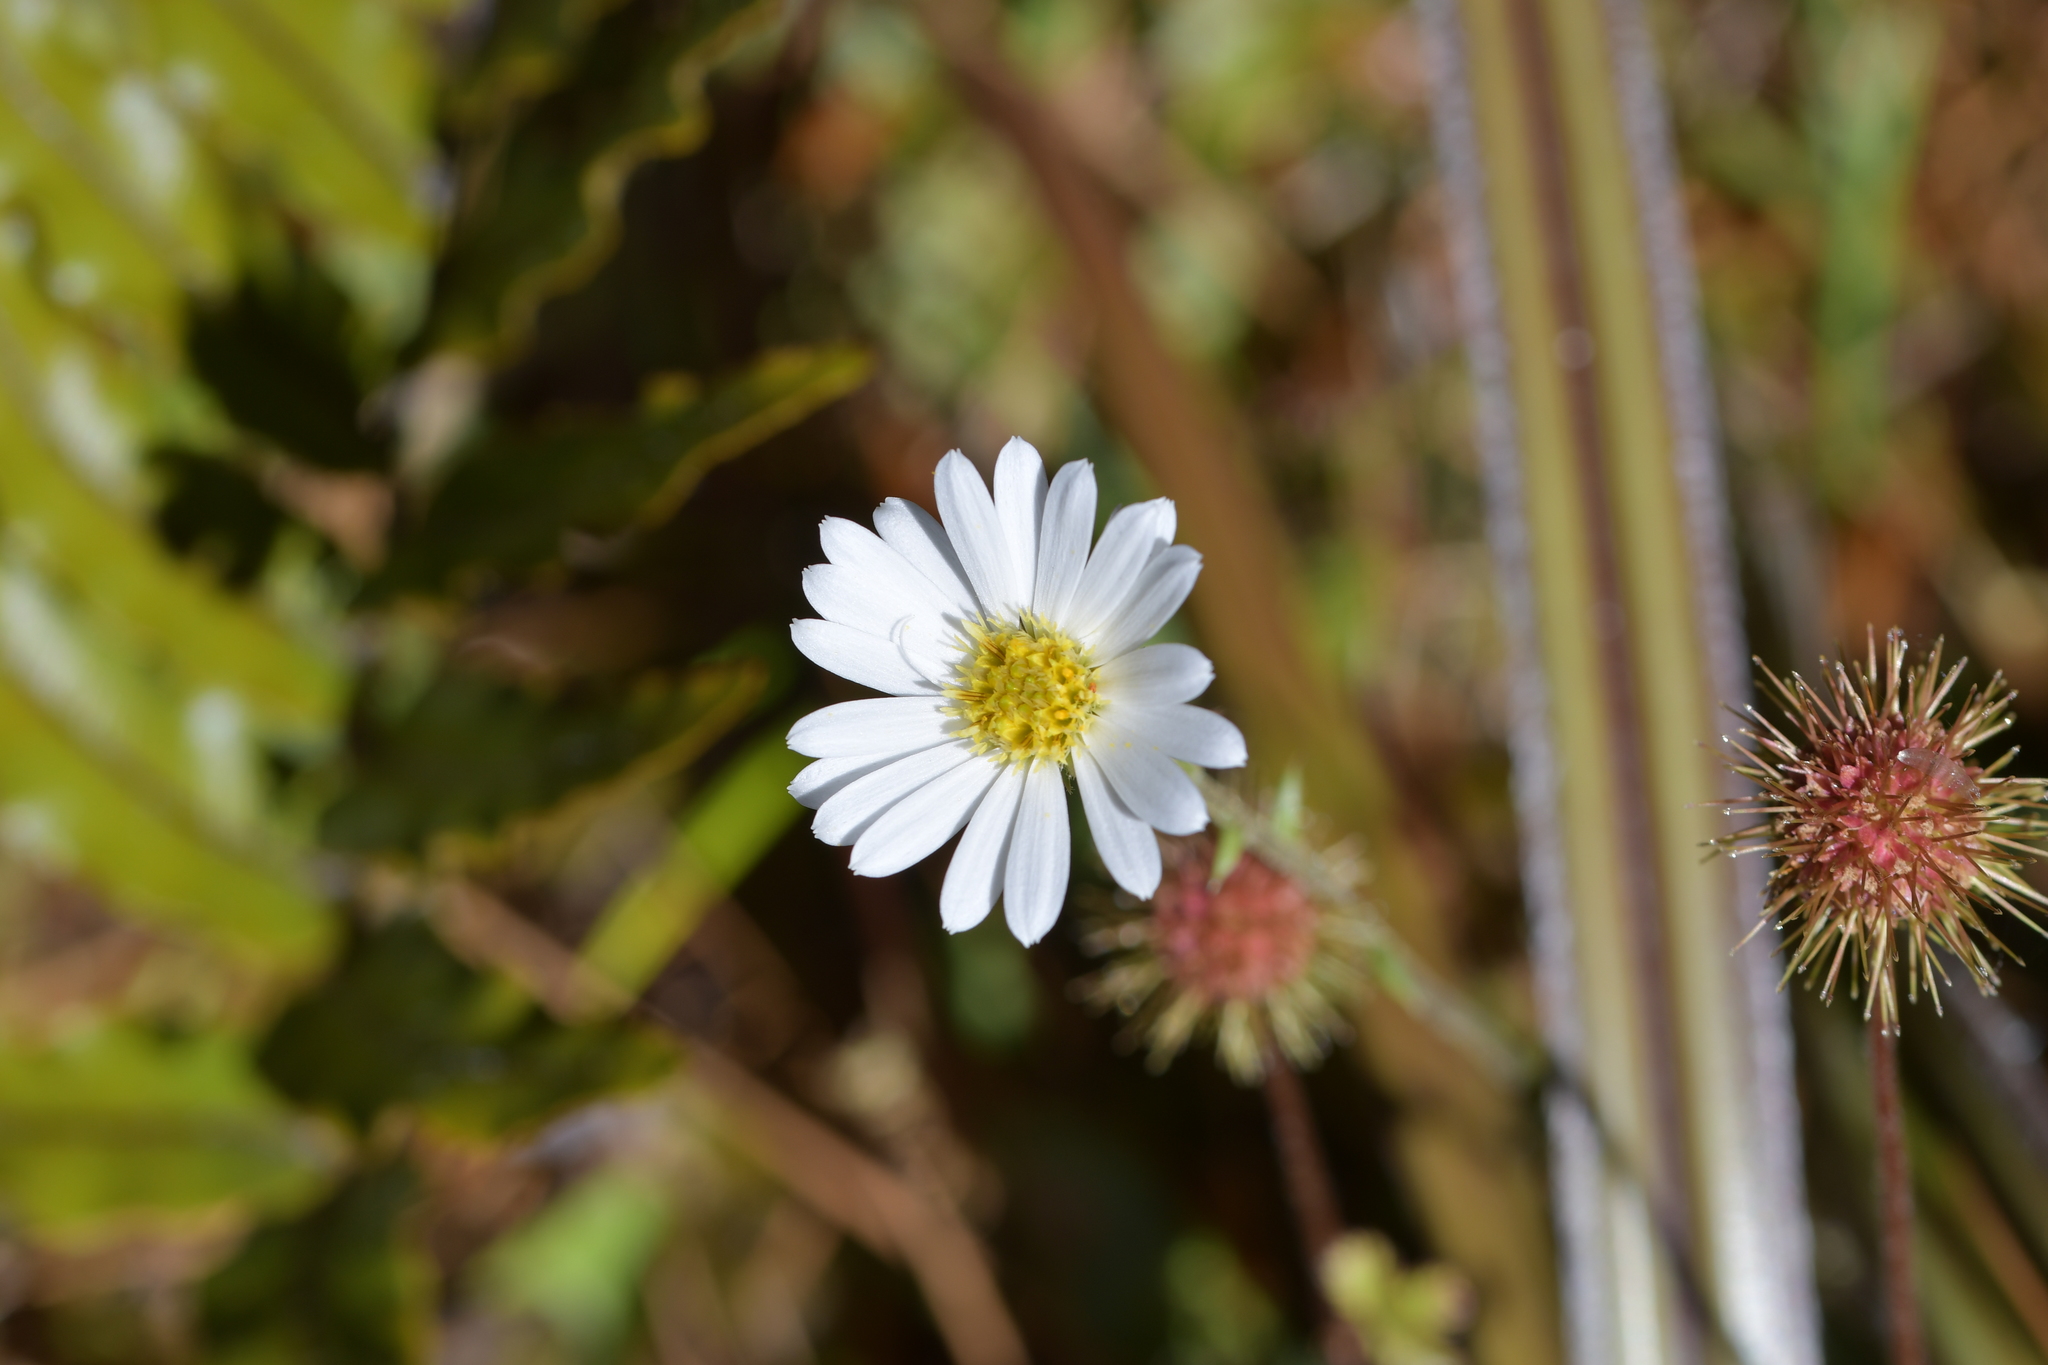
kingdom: Plantae
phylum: Tracheophyta
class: Magnoliopsida
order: Asterales
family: Asteraceae
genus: Celmisia
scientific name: Celmisia glandulosa
